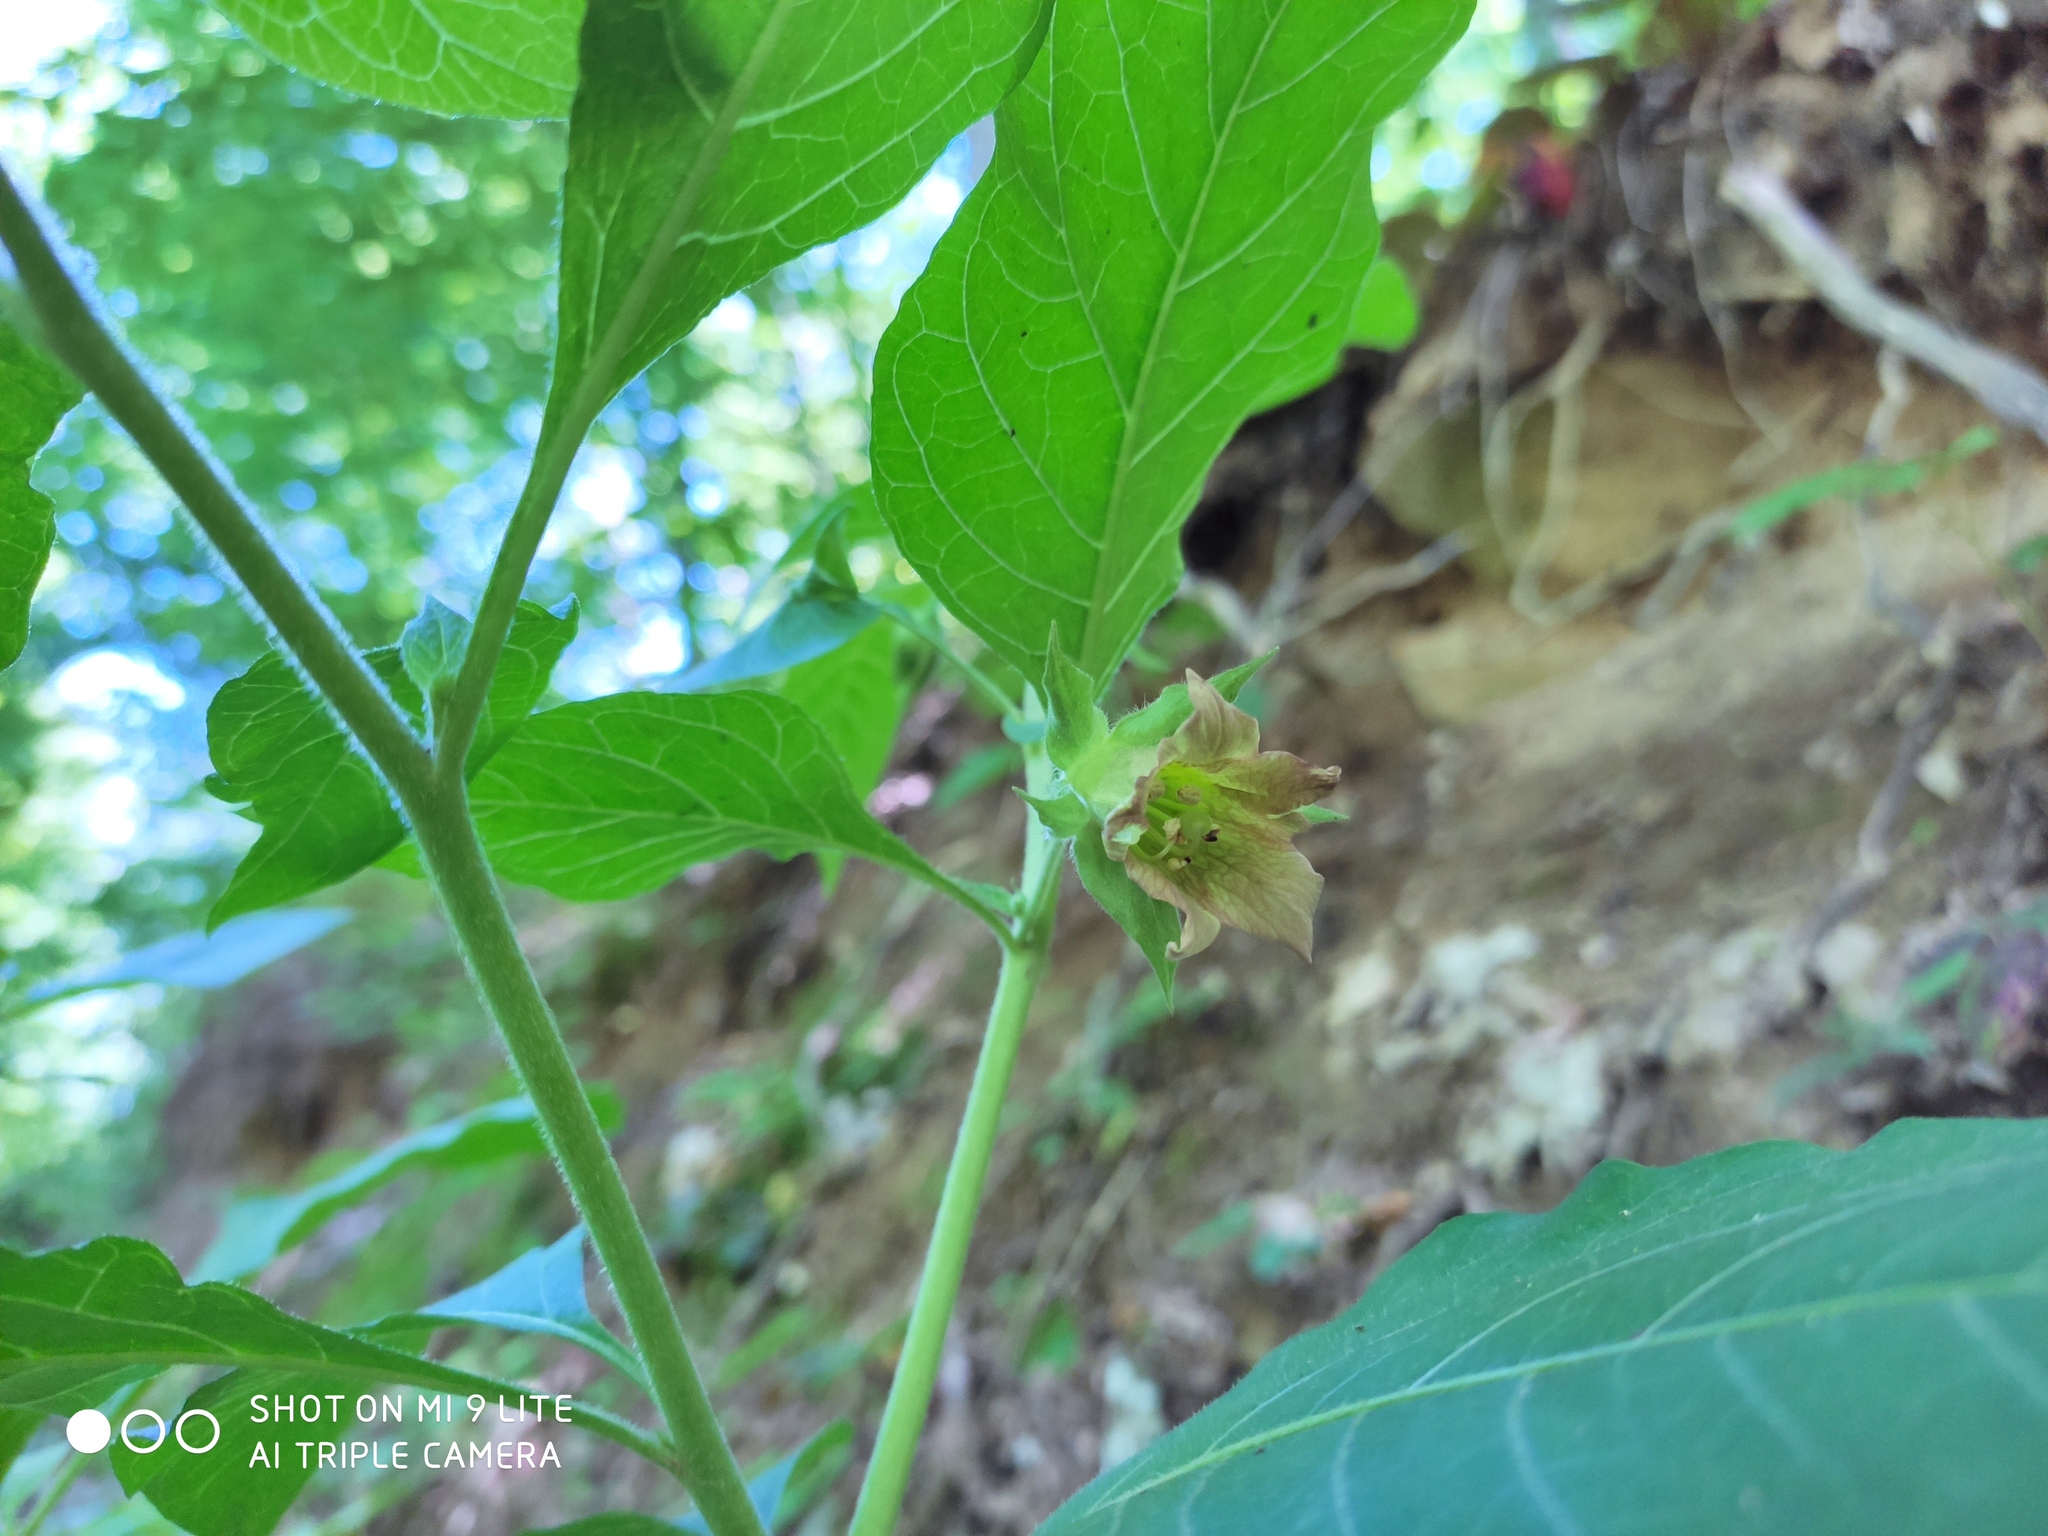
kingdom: Plantae
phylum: Tracheophyta
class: Magnoliopsida
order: Solanales
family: Solanaceae
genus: Atropa
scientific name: Atropa belladonna
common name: Deadly nightshade
